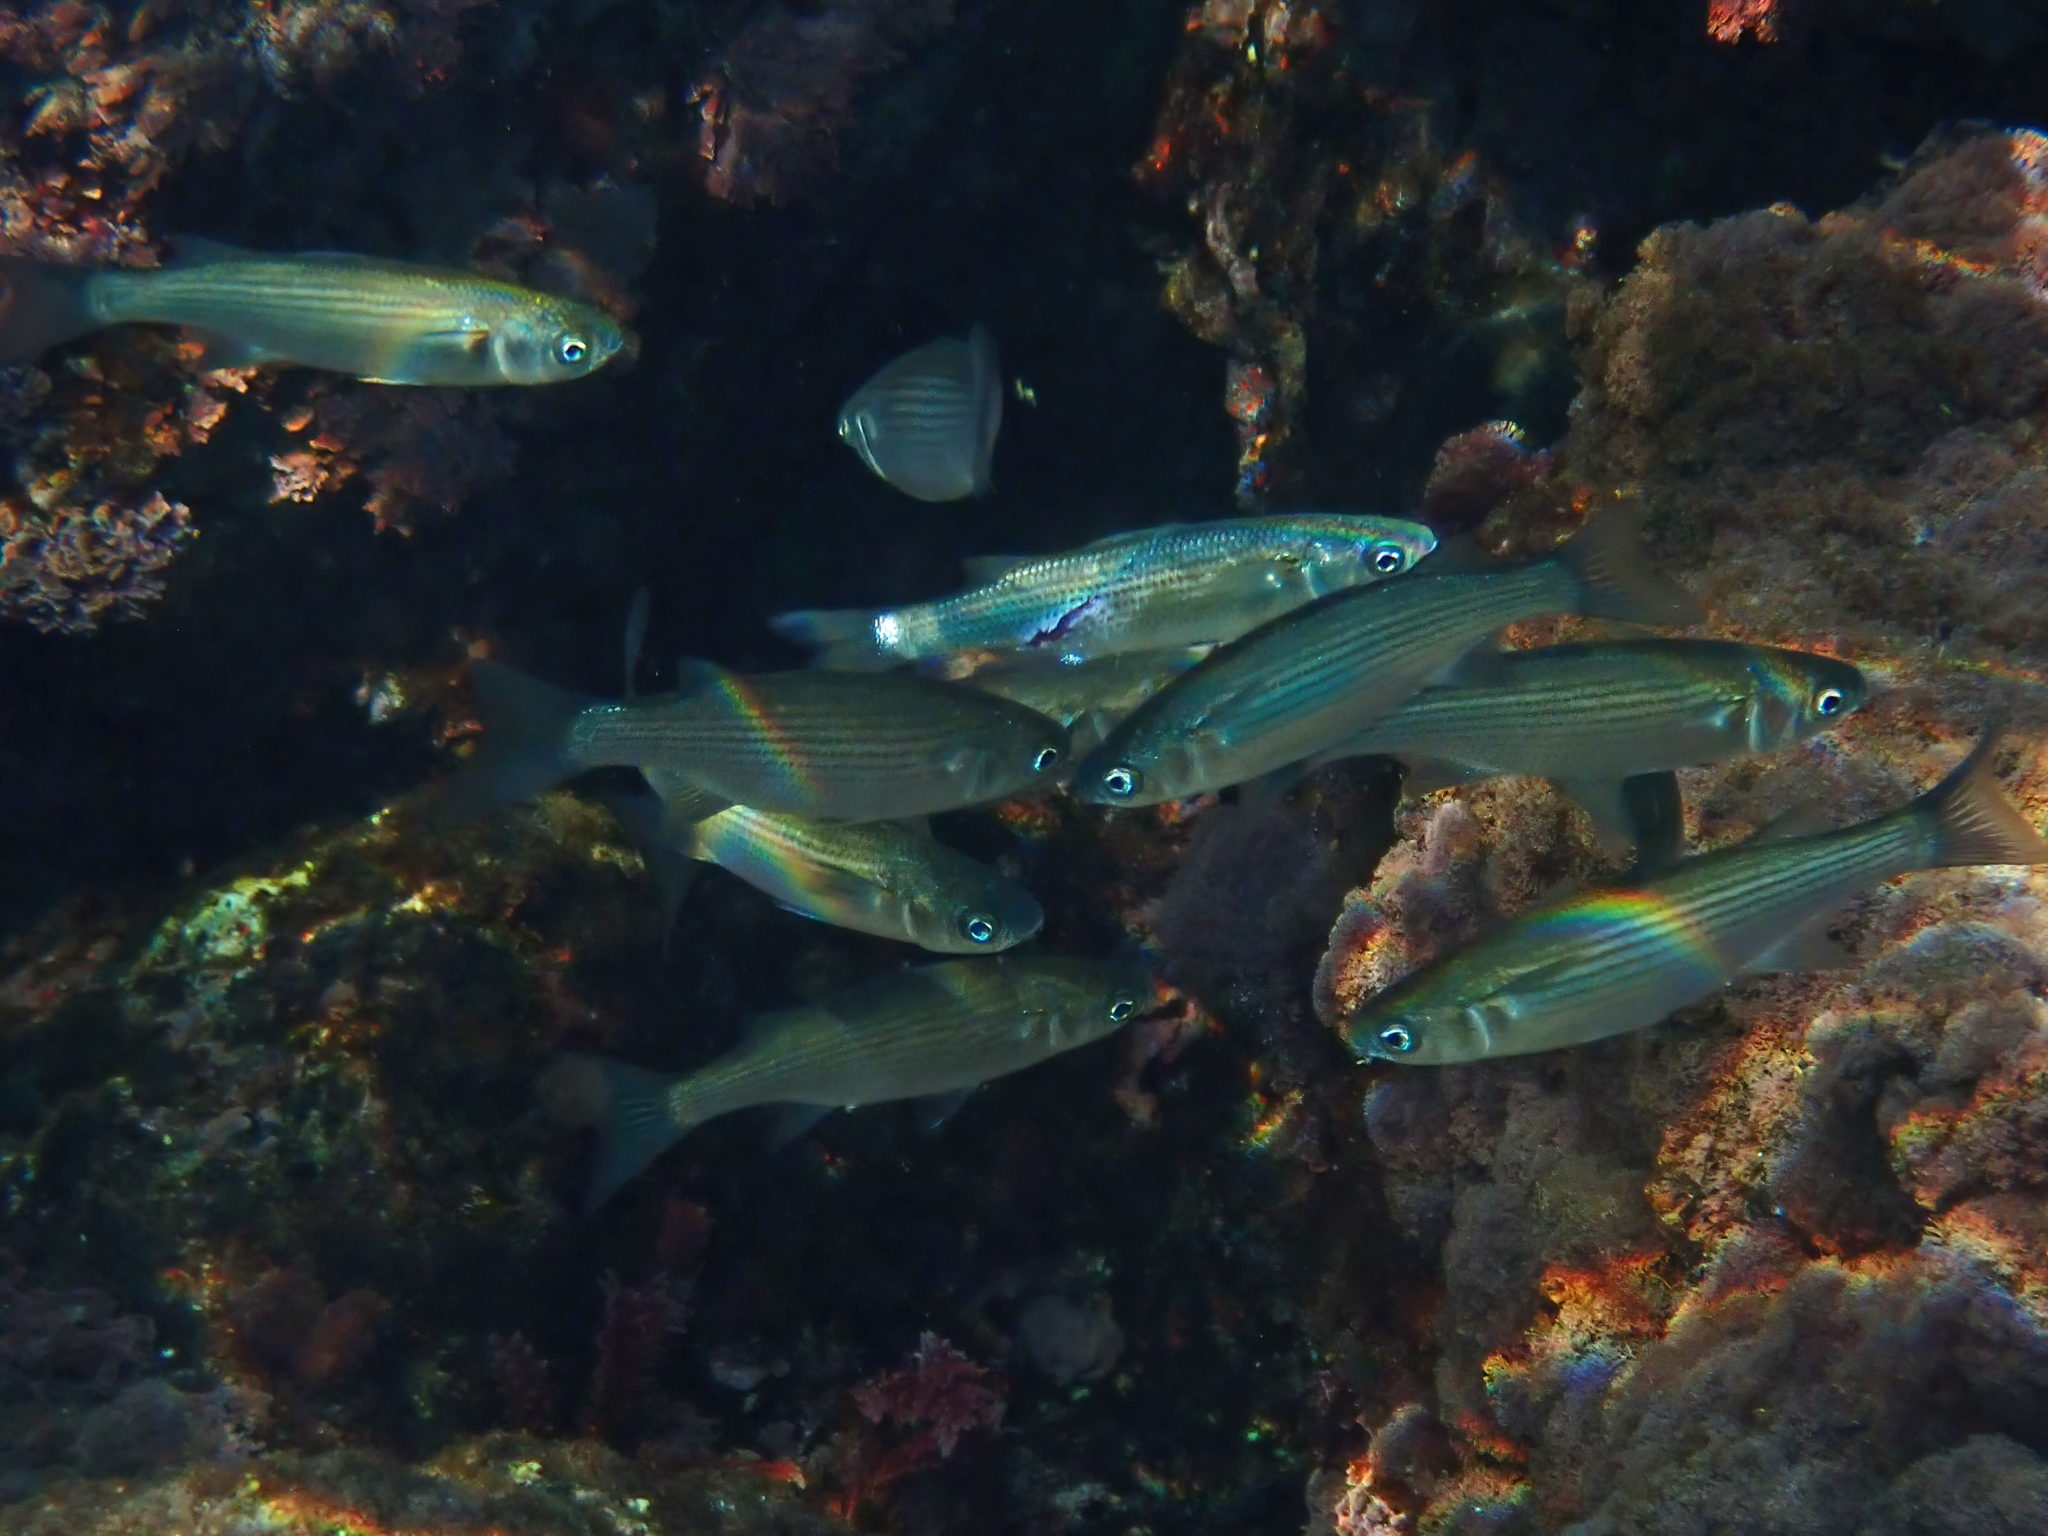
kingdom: Animalia
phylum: Chordata
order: Mugiliformes
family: Mugilidae
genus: Oedalechilus
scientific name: Oedalechilus labeo
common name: Boxlip mullet
